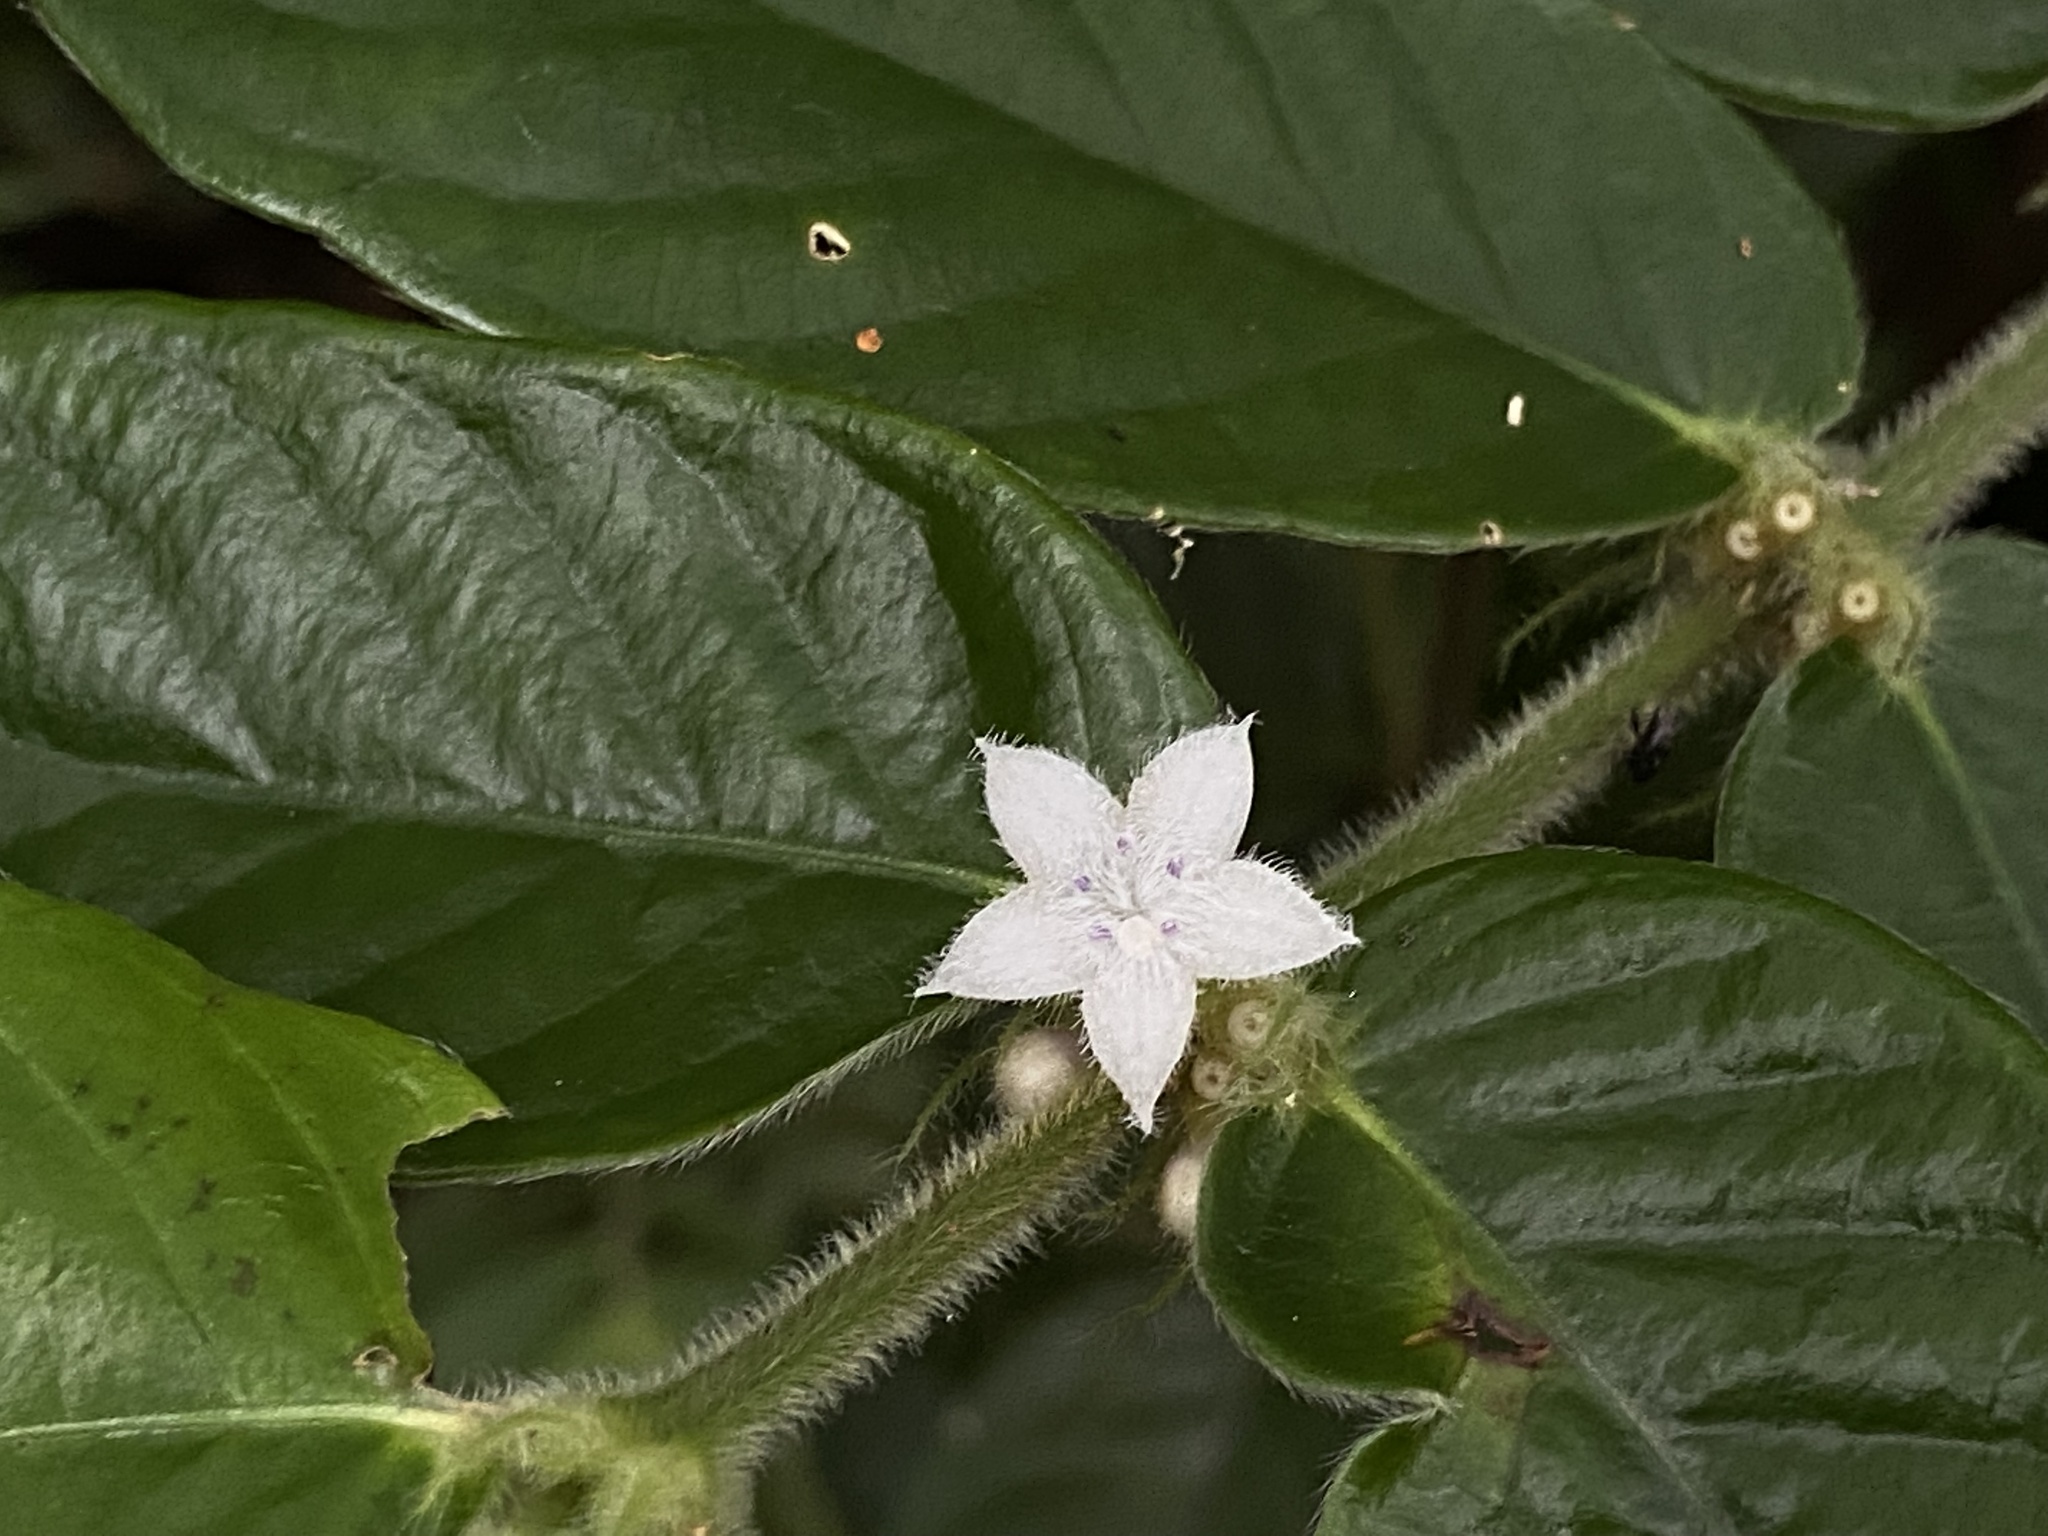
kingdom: Plantae
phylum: Tracheophyta
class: Magnoliopsida
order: Gentianales
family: Rubiaceae
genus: Lasianthus
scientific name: Lasianthus attenuatus
